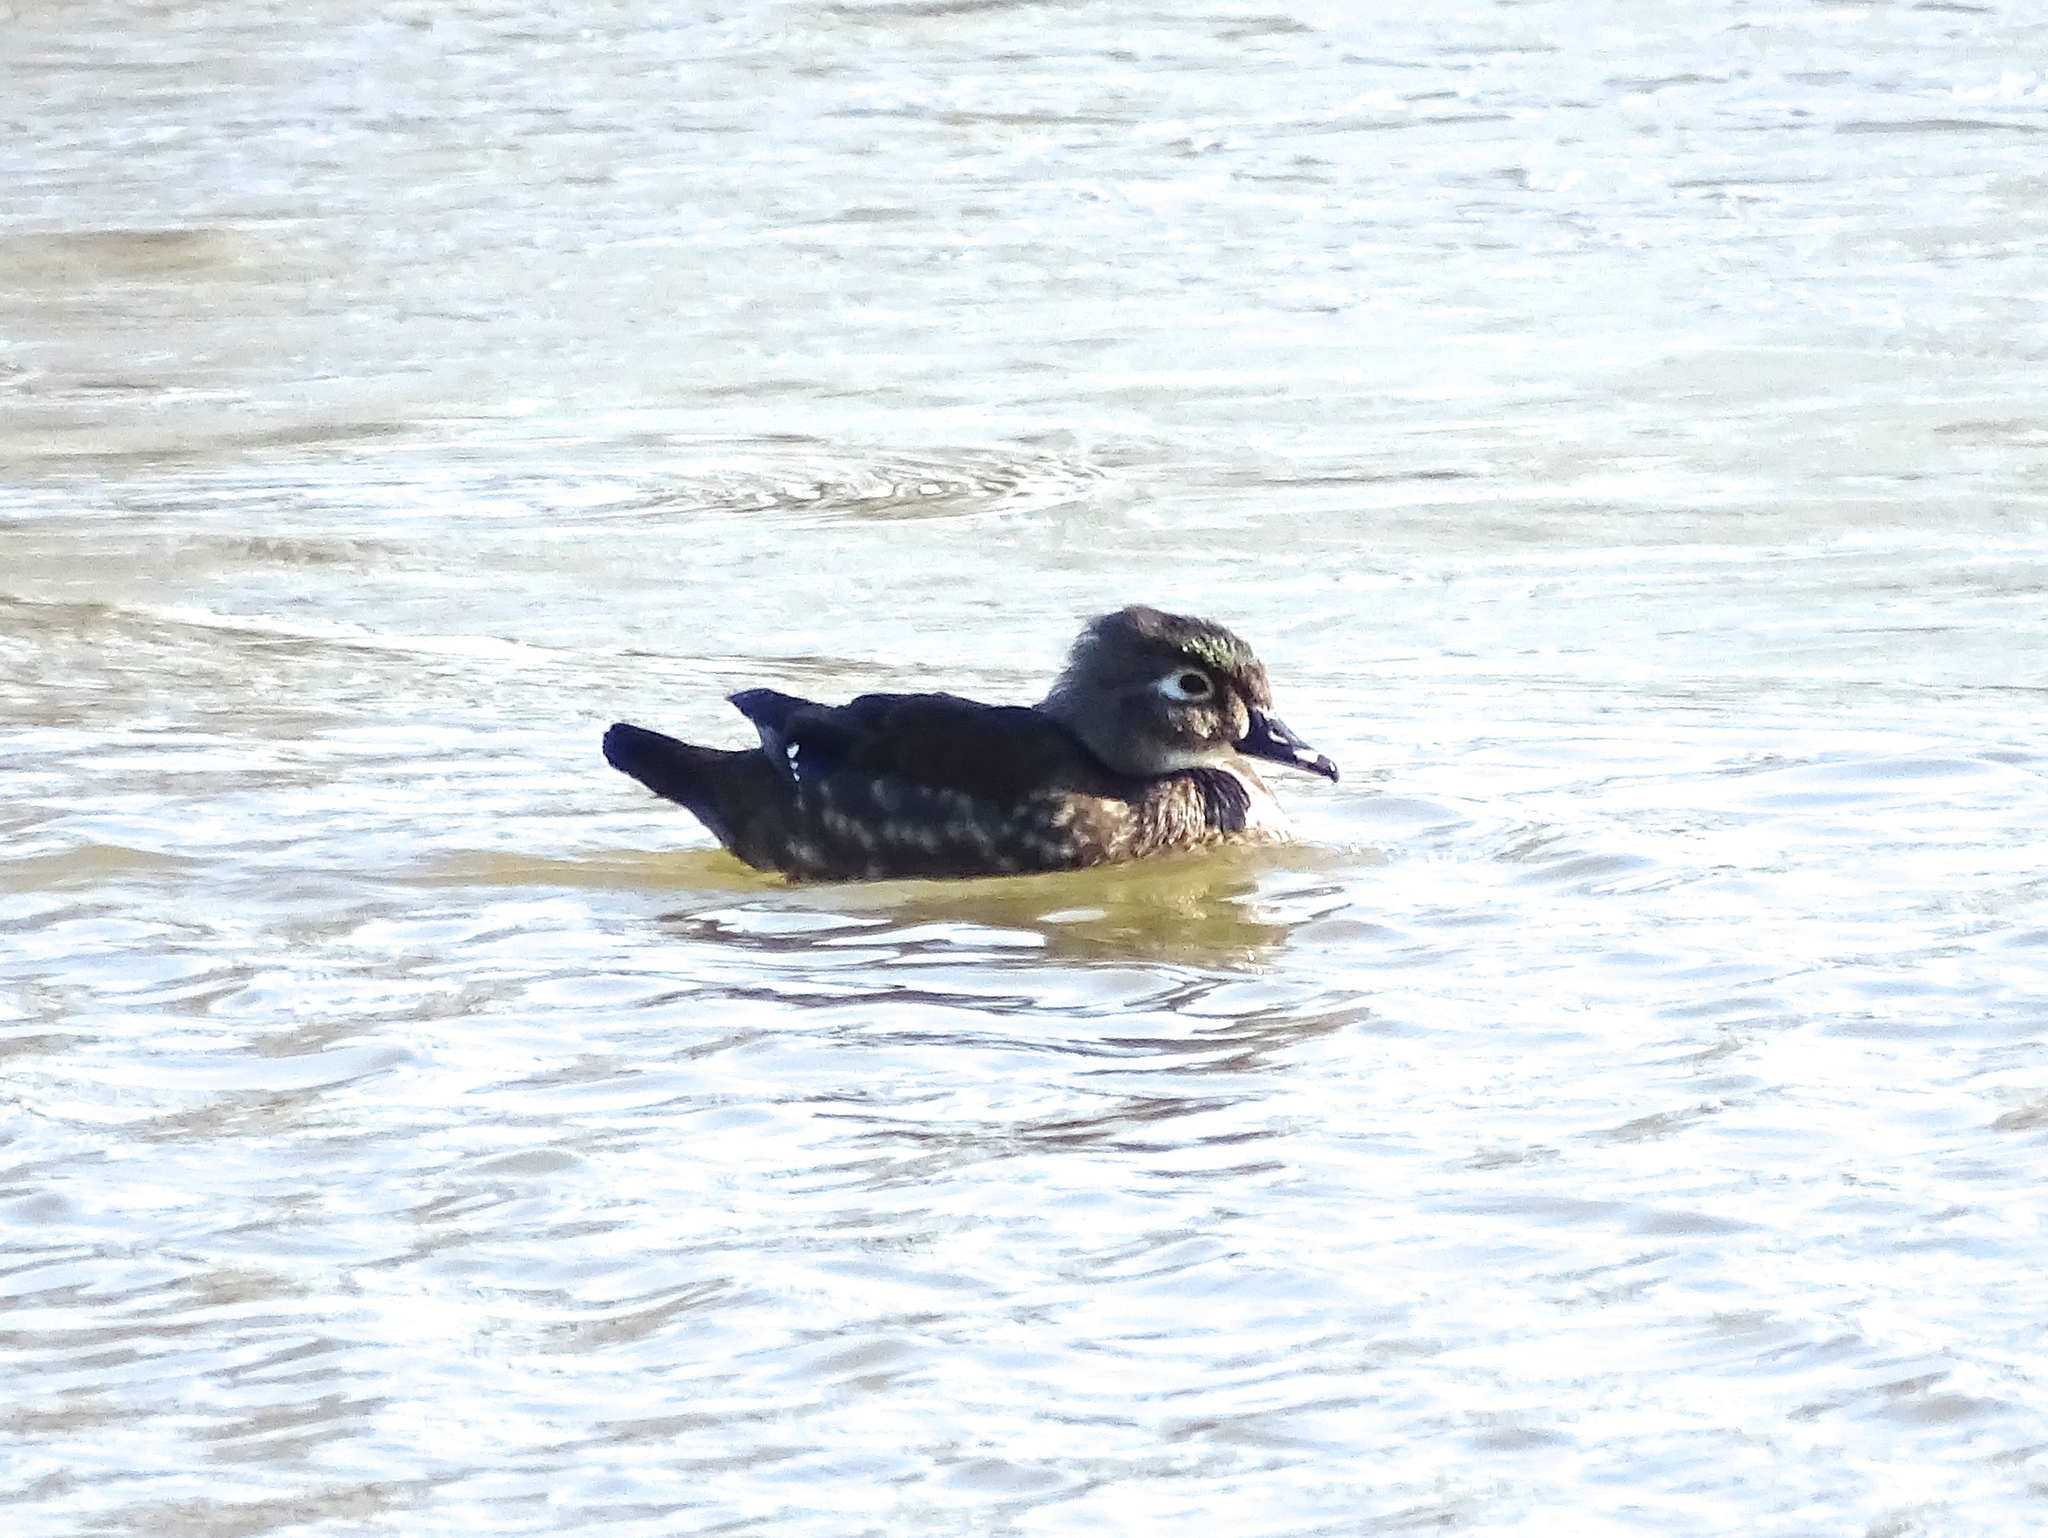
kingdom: Animalia
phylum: Chordata
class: Aves
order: Anseriformes
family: Anatidae
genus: Aix
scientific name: Aix sponsa
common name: Wood duck
